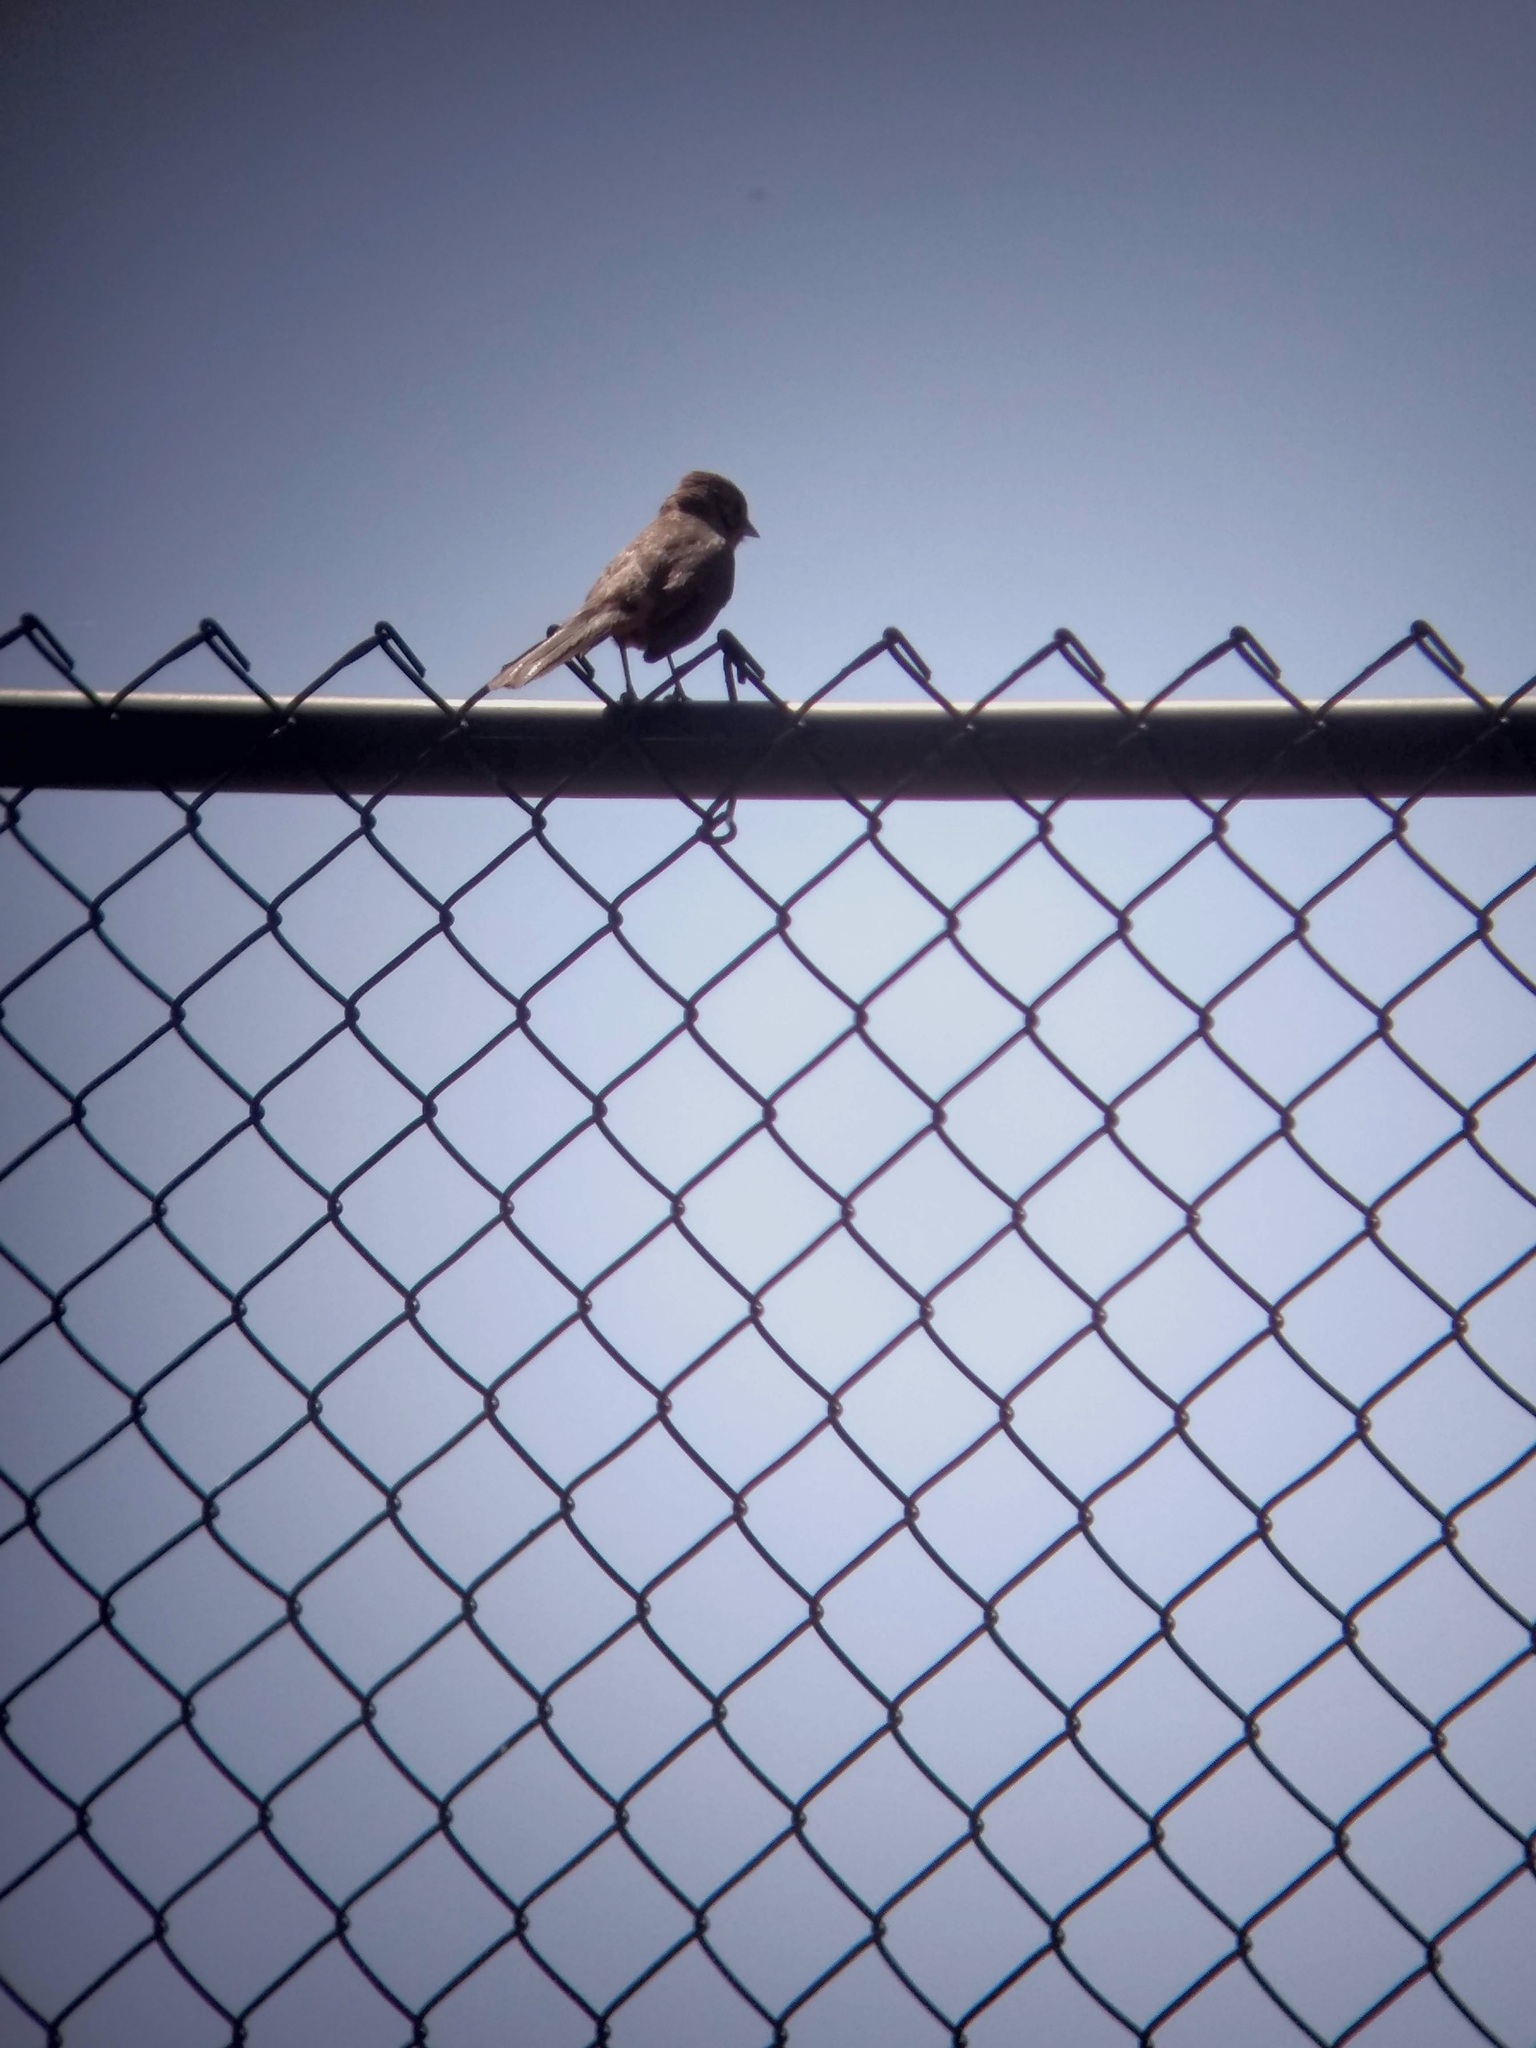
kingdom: Animalia
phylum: Chordata
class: Aves
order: Passeriformes
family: Passerellidae
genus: Melozone
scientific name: Melozone crissalis
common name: California towhee
